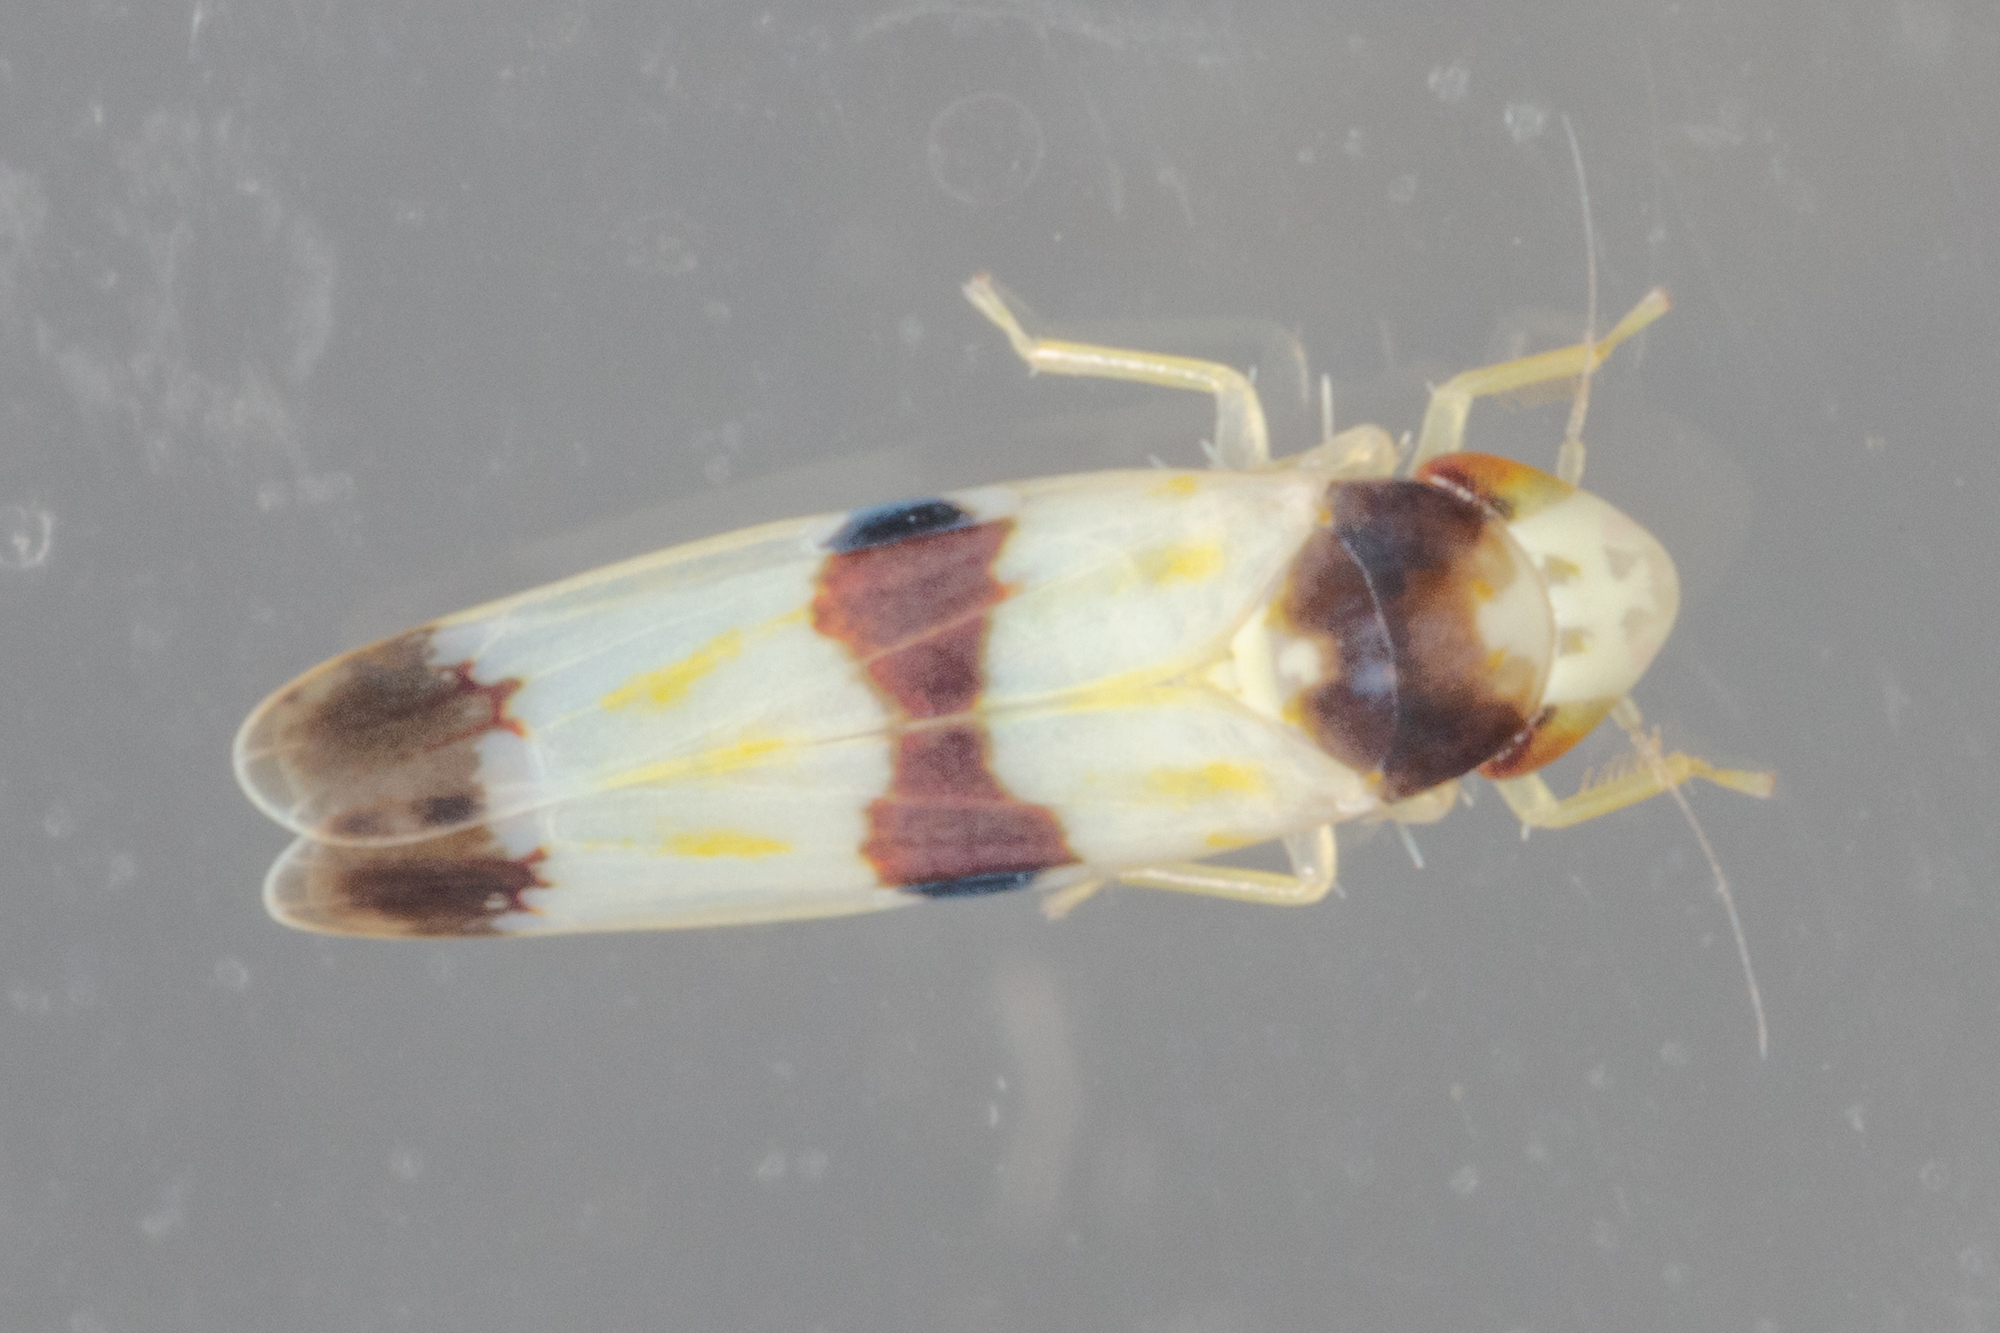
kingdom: Animalia
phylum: Arthropoda
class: Insecta
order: Hemiptera
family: Cicadellidae
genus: Erythroneura
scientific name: Erythroneura tricincta
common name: The threebanded grape leafhopper
